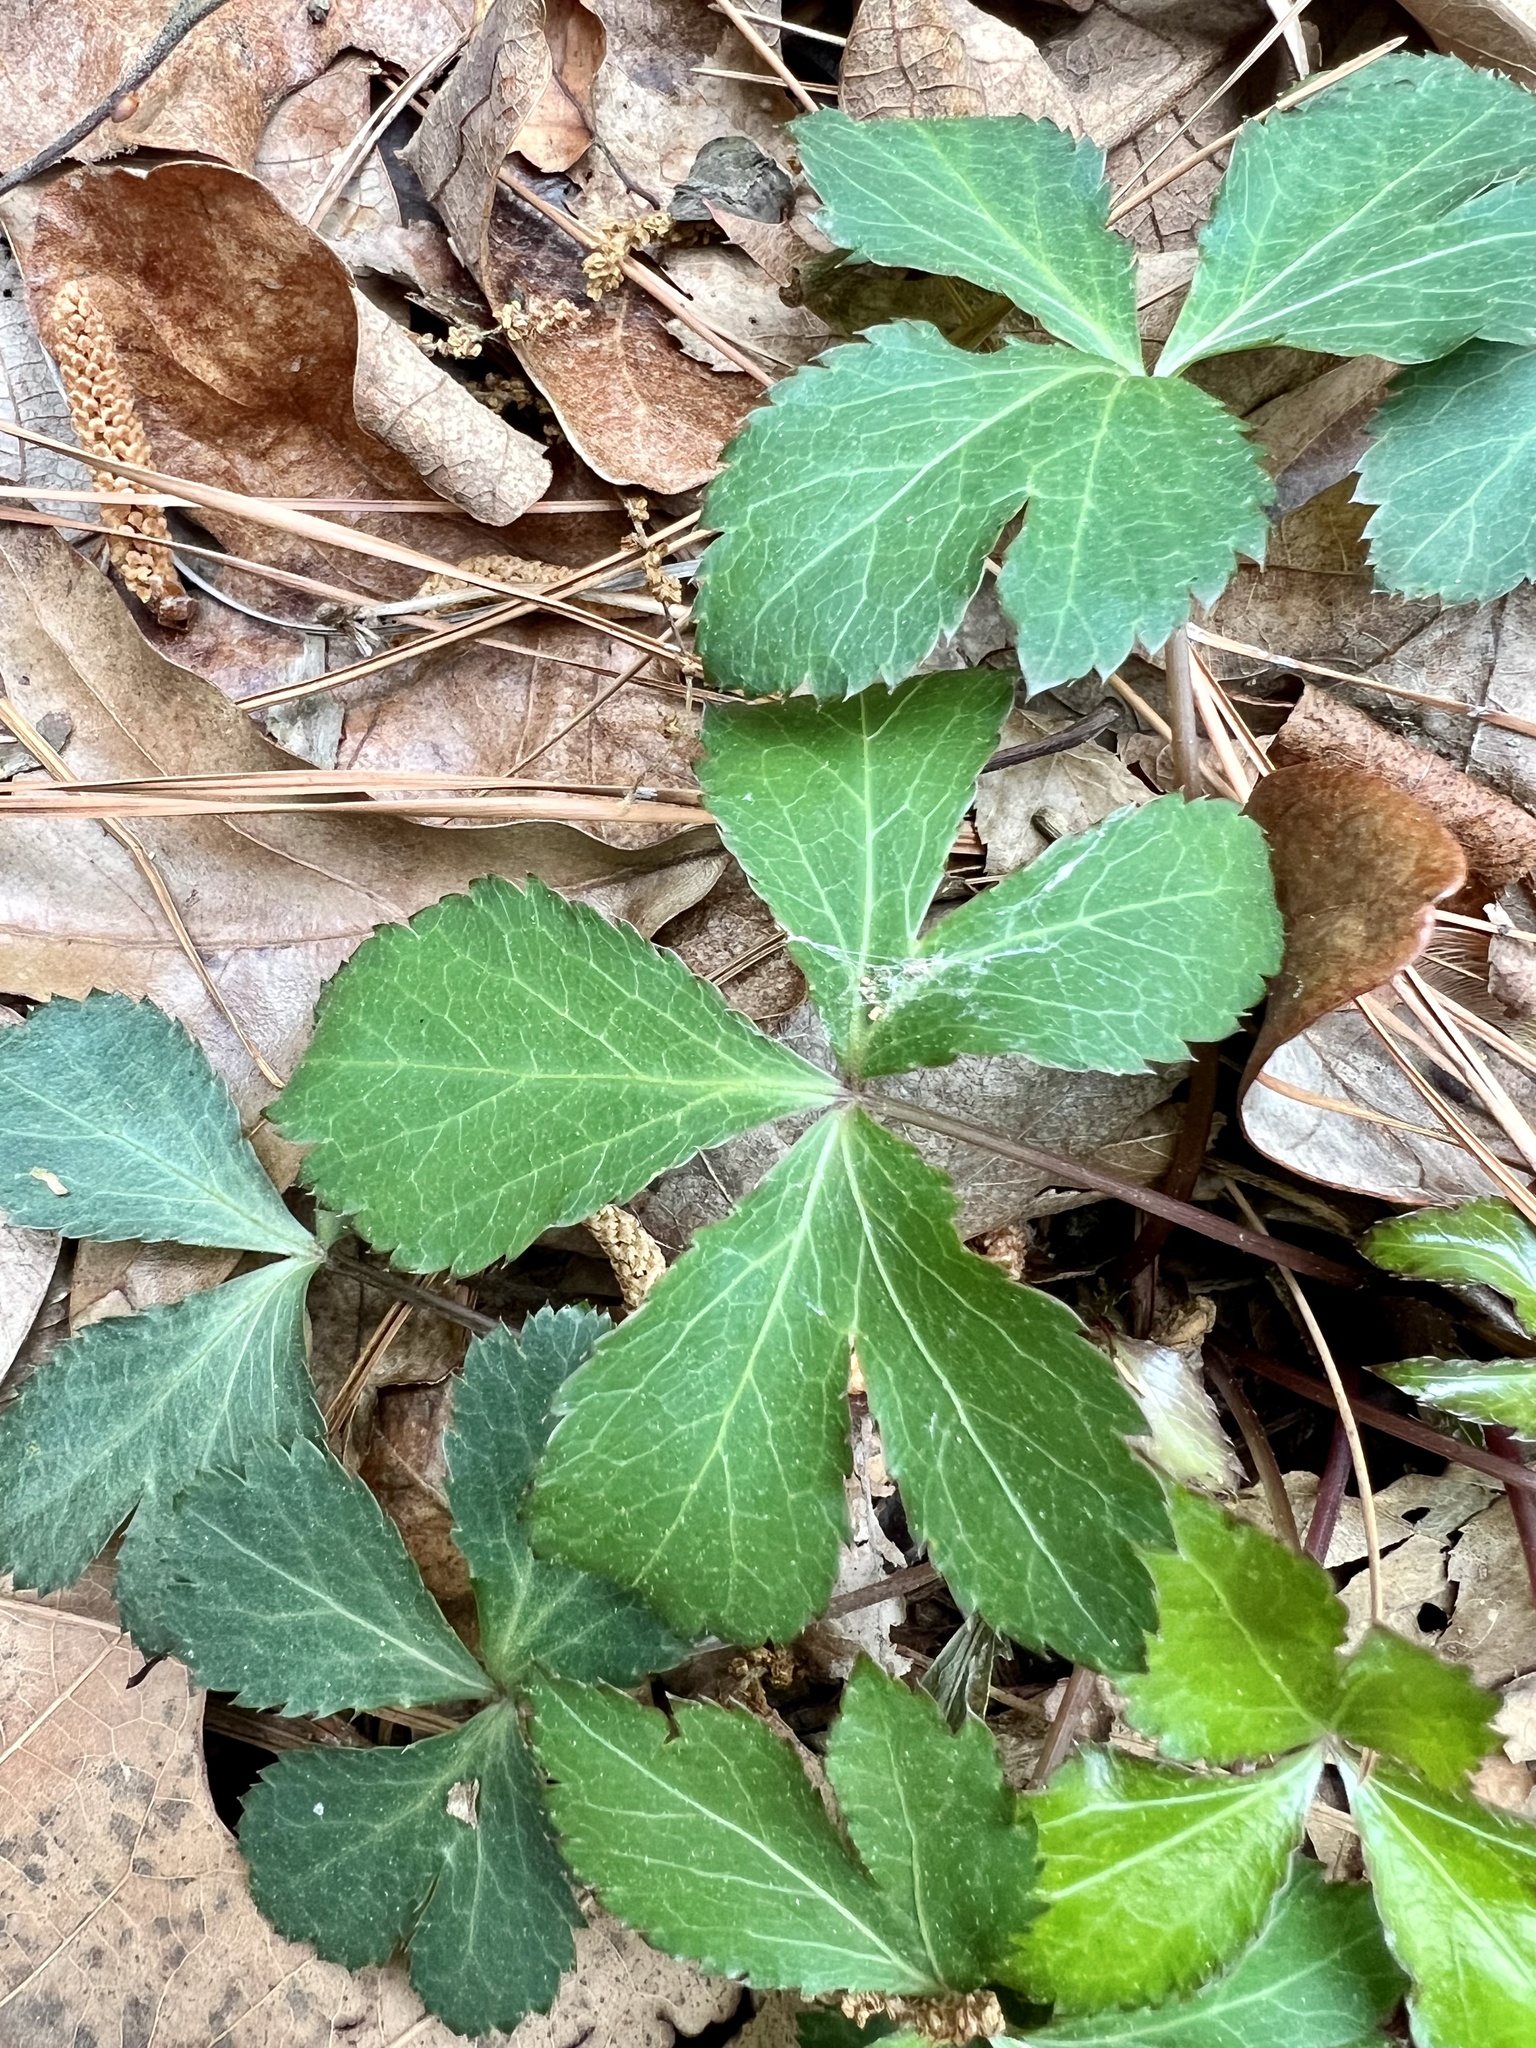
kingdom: Plantae
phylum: Tracheophyta
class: Magnoliopsida
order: Apiales
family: Apiaceae
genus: Sanicula
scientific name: Sanicula smallii
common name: Small's black snakeroot
